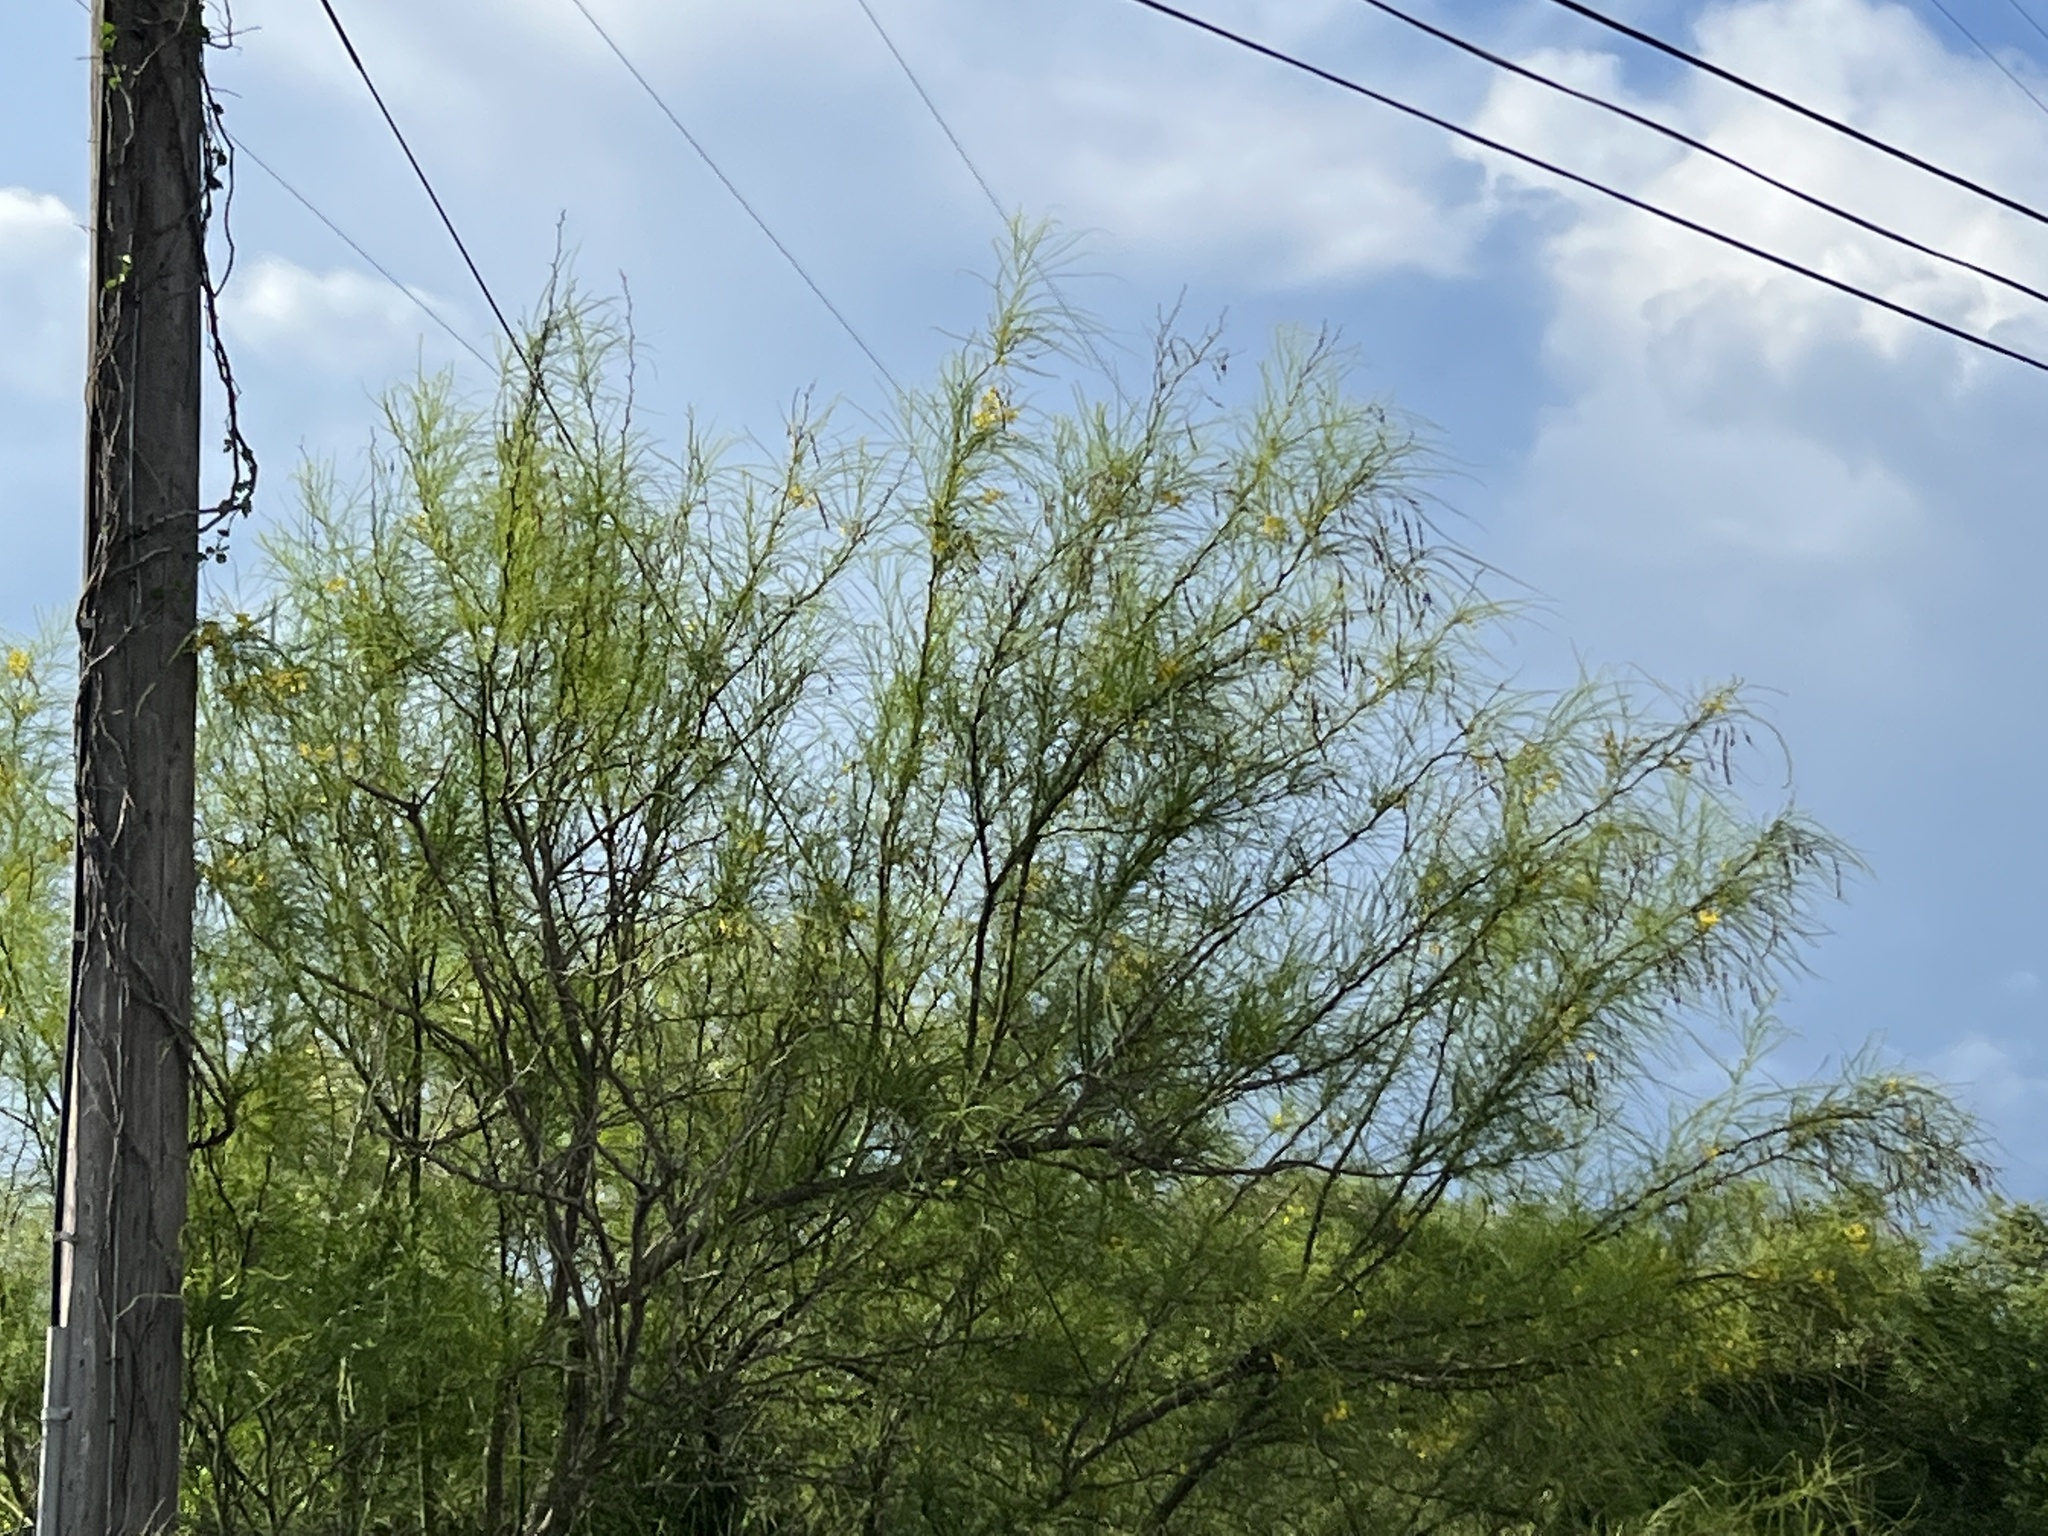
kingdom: Plantae
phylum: Tracheophyta
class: Magnoliopsida
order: Fabales
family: Fabaceae
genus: Parkinsonia
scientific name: Parkinsonia aculeata
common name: Jerusalem thorn
